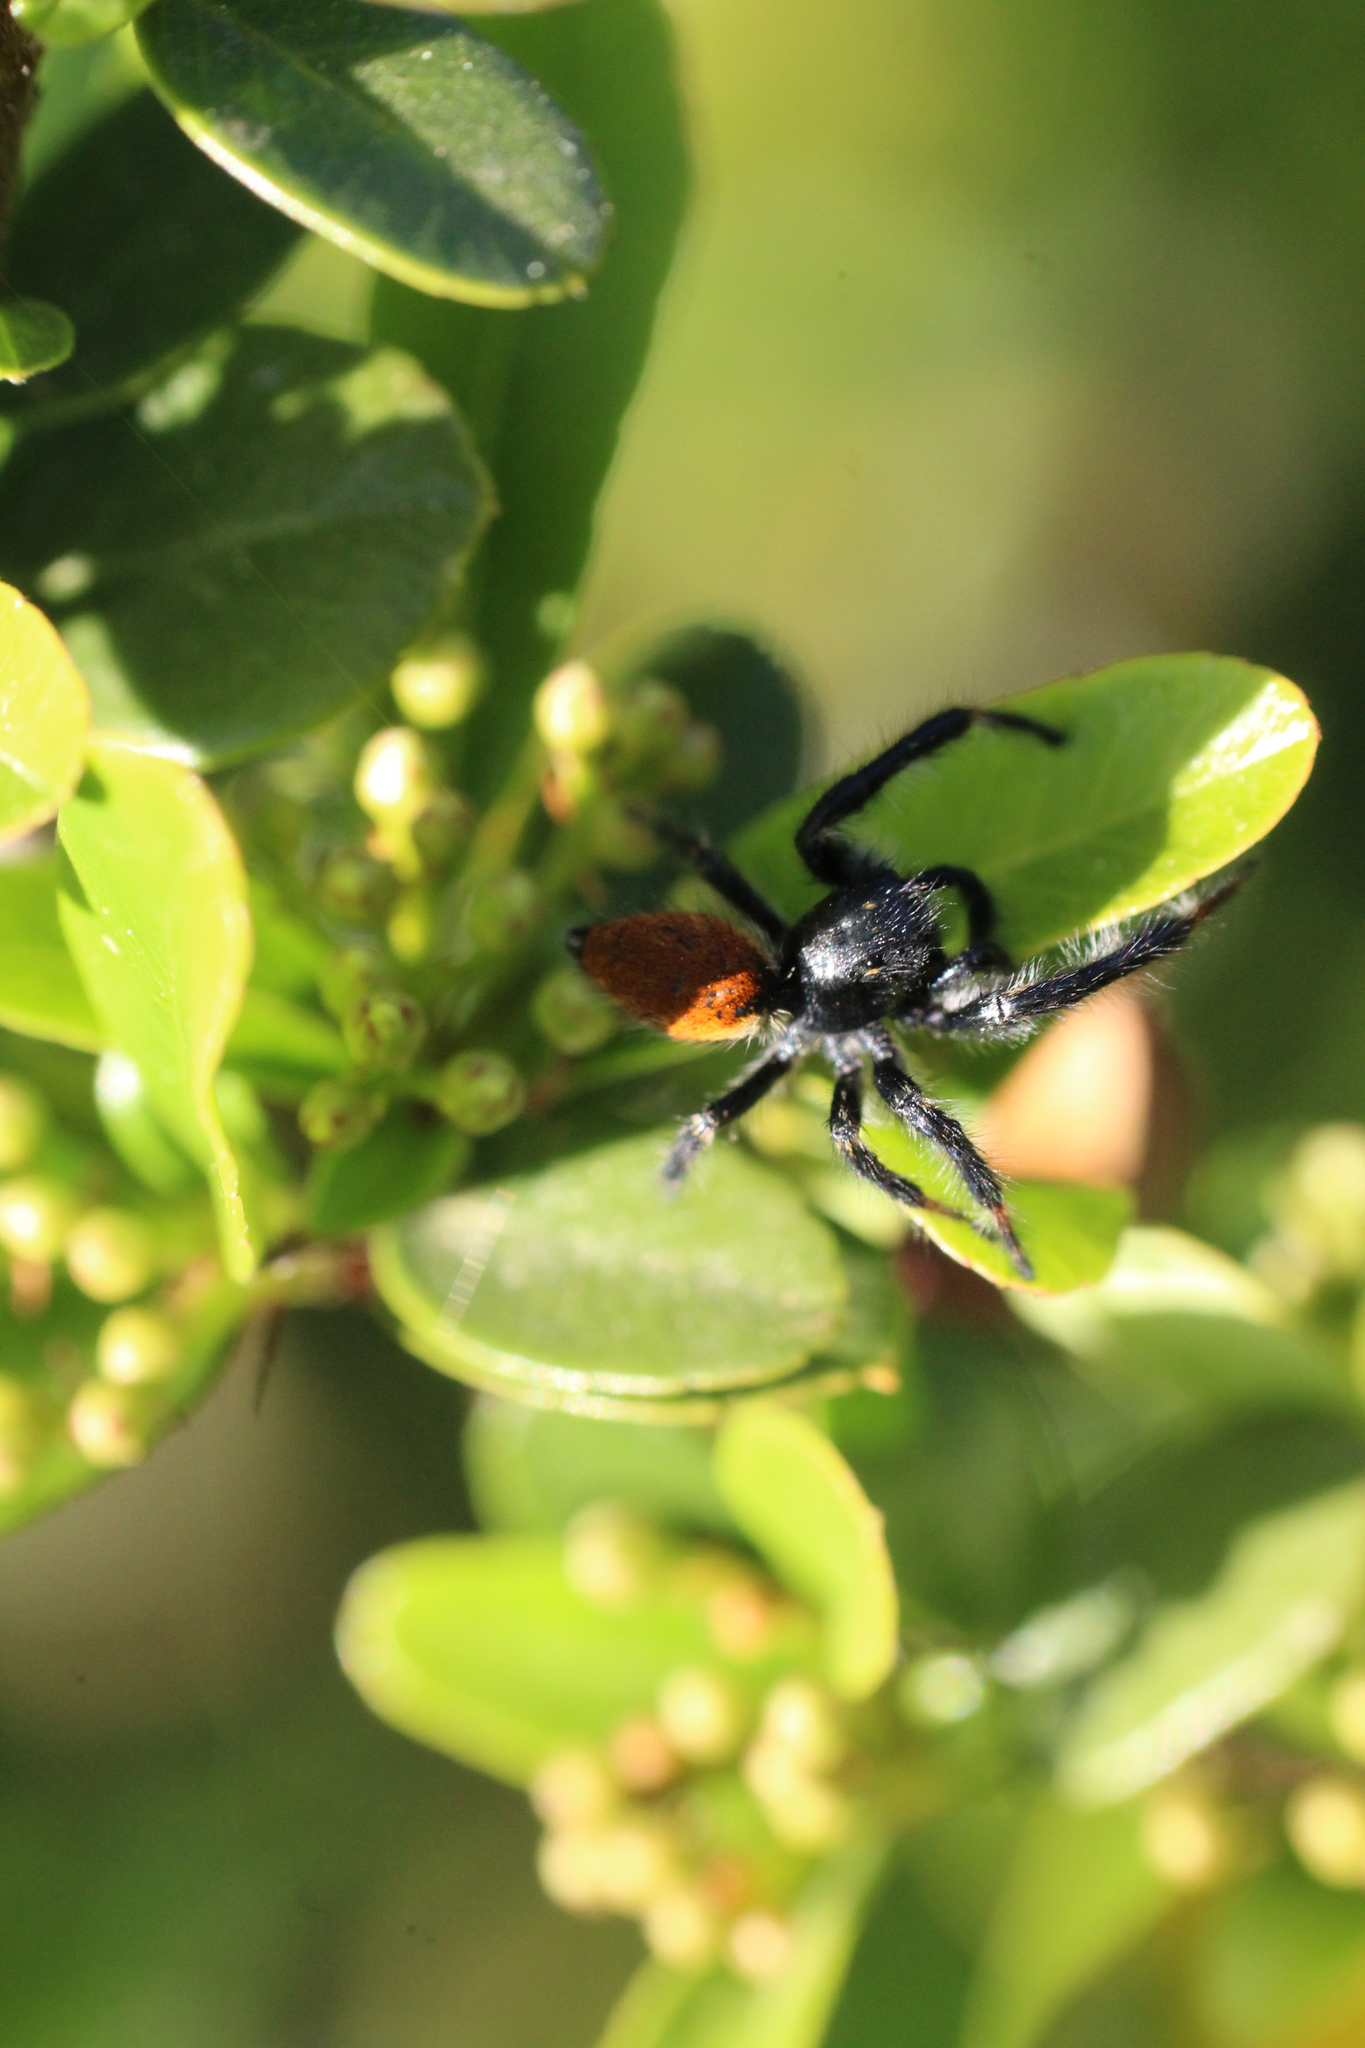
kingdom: Animalia
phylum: Arthropoda
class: Arachnida
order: Araneae
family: Salticidae
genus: Carrhotus
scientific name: Carrhotus xanthogramma
